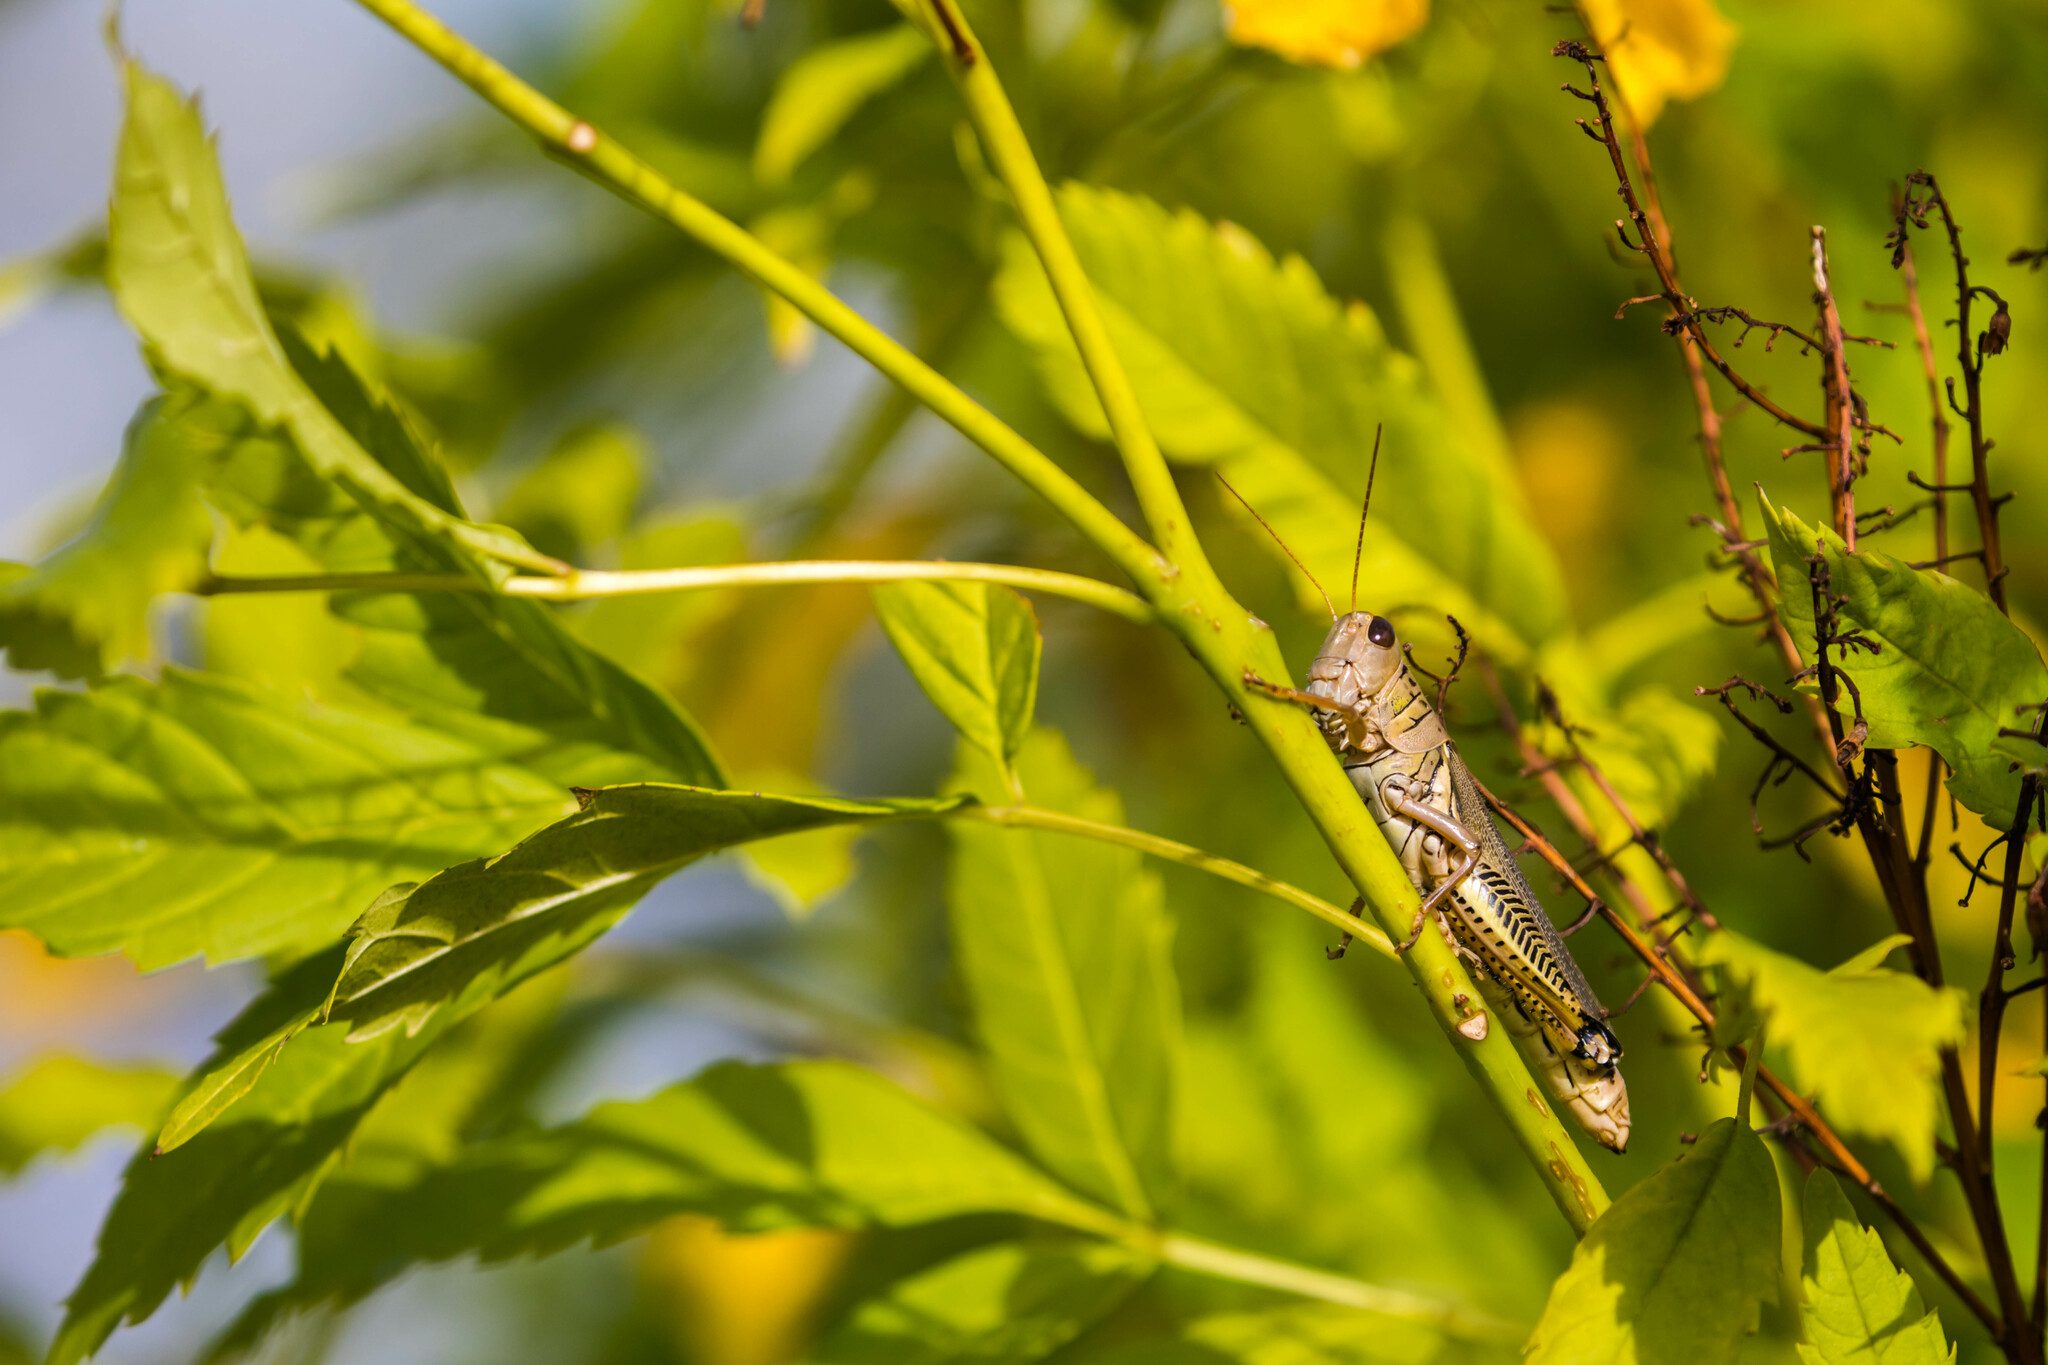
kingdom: Animalia
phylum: Arthropoda
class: Insecta
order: Orthoptera
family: Acrididae
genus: Melanoplus
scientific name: Melanoplus differentialis
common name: Differential grasshopper
